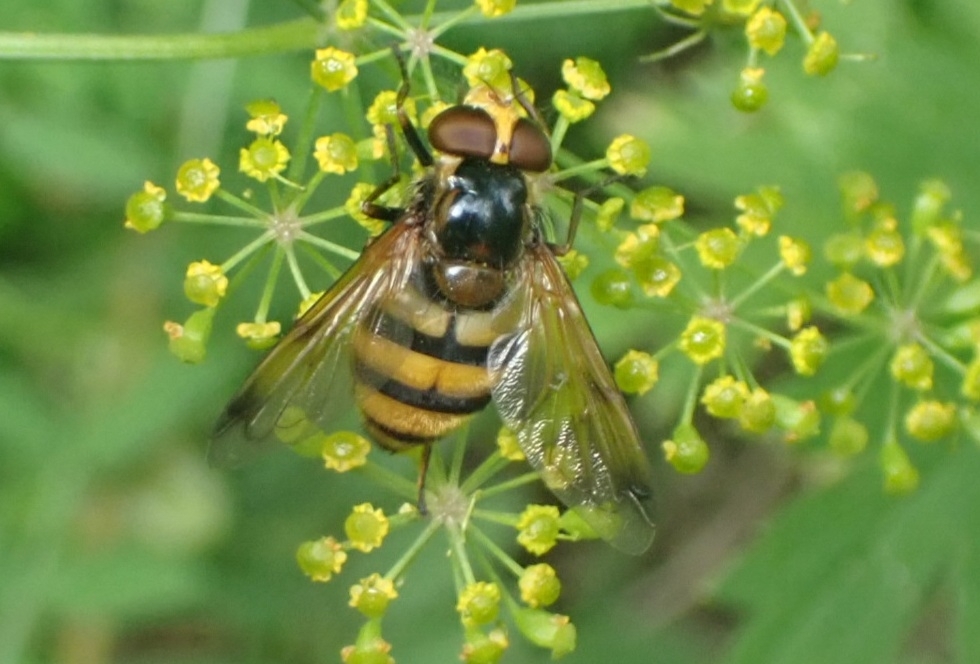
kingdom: Animalia
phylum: Arthropoda
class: Insecta
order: Diptera
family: Syrphidae
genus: Volucella
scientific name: Volucella inanis
